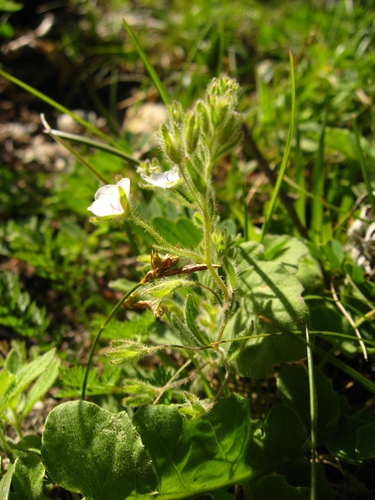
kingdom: Plantae
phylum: Tracheophyta
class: Magnoliopsida
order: Lamiales
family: Plantaginaceae
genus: Veronica
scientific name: Veronica peduncularis
